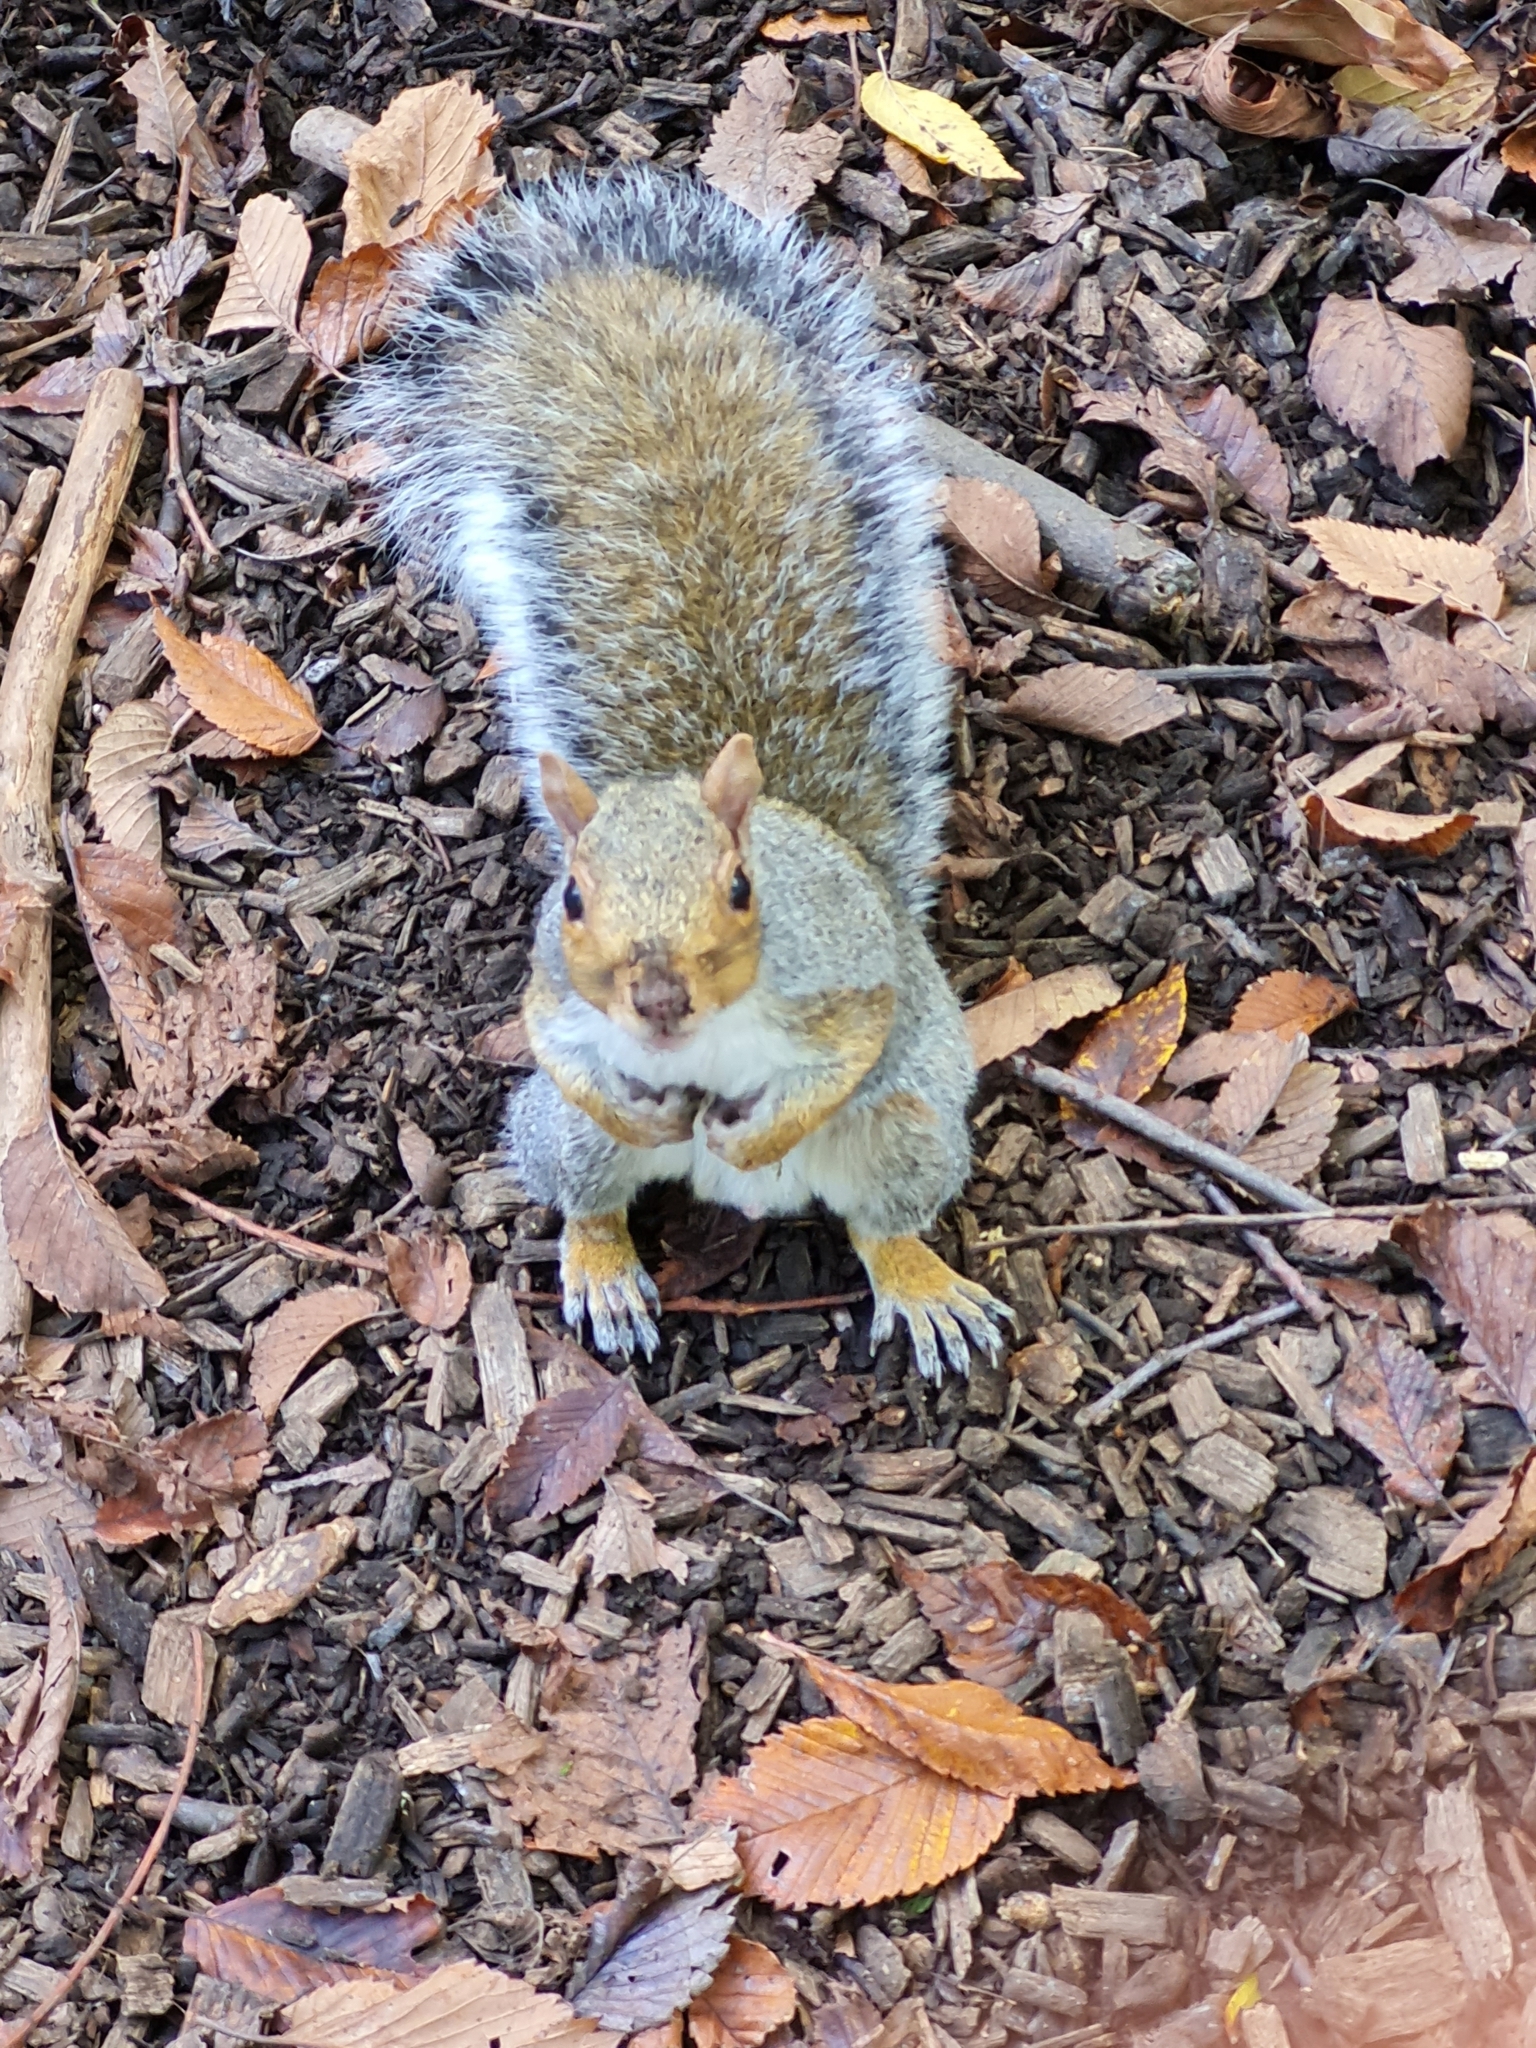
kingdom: Animalia
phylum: Chordata
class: Mammalia
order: Rodentia
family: Sciuridae
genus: Sciurus
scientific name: Sciurus carolinensis
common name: Eastern gray squirrel
